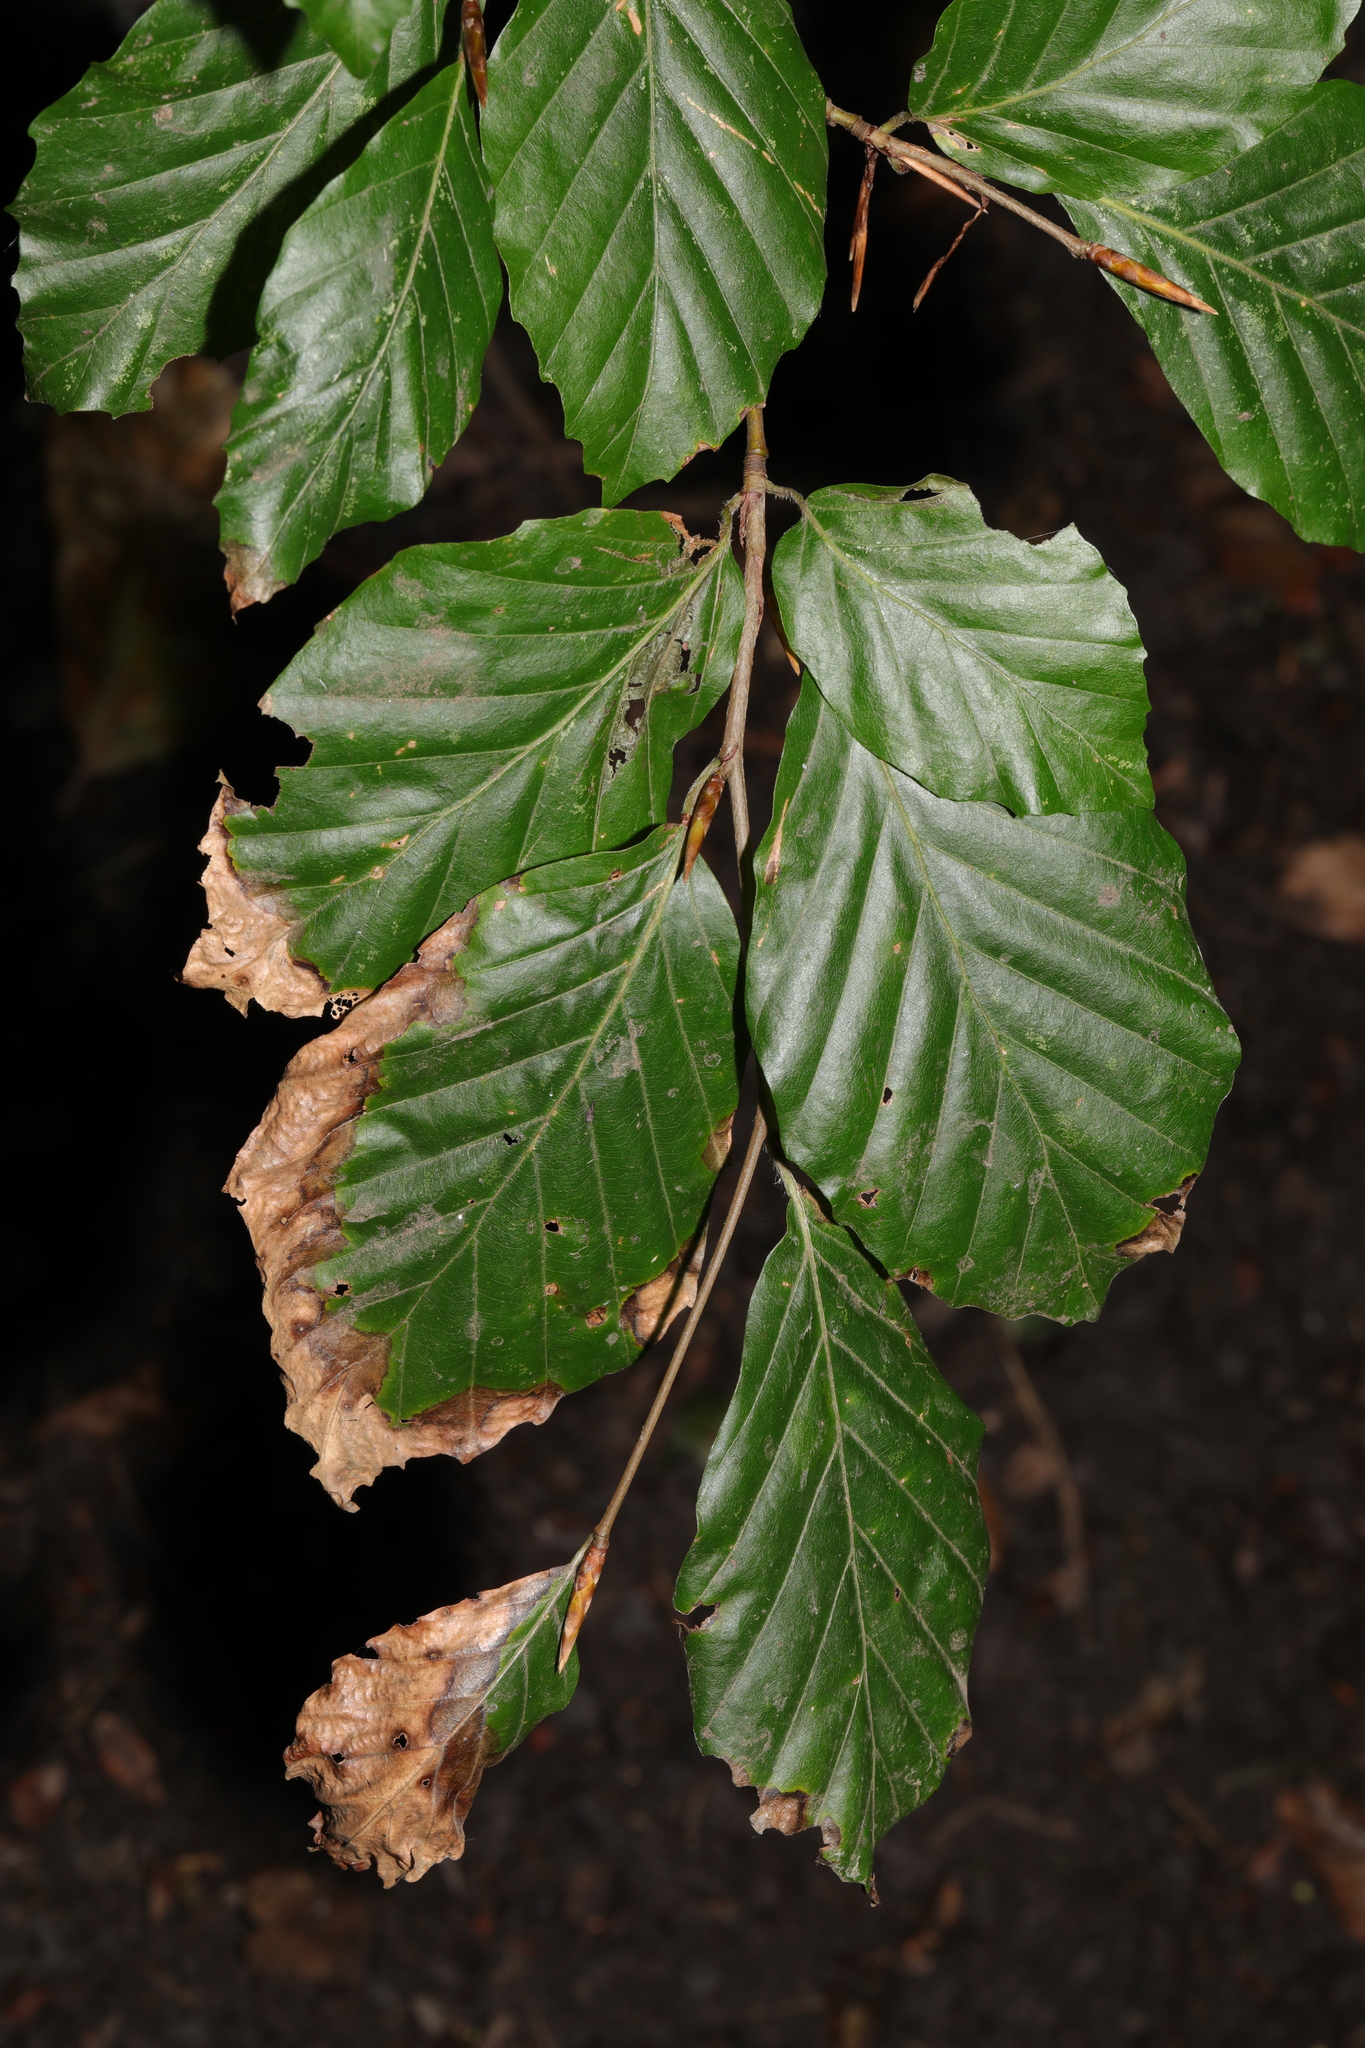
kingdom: Plantae
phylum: Tracheophyta
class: Magnoliopsida
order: Fagales
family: Fagaceae
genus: Fagus
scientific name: Fagus sylvatica
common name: Beech
